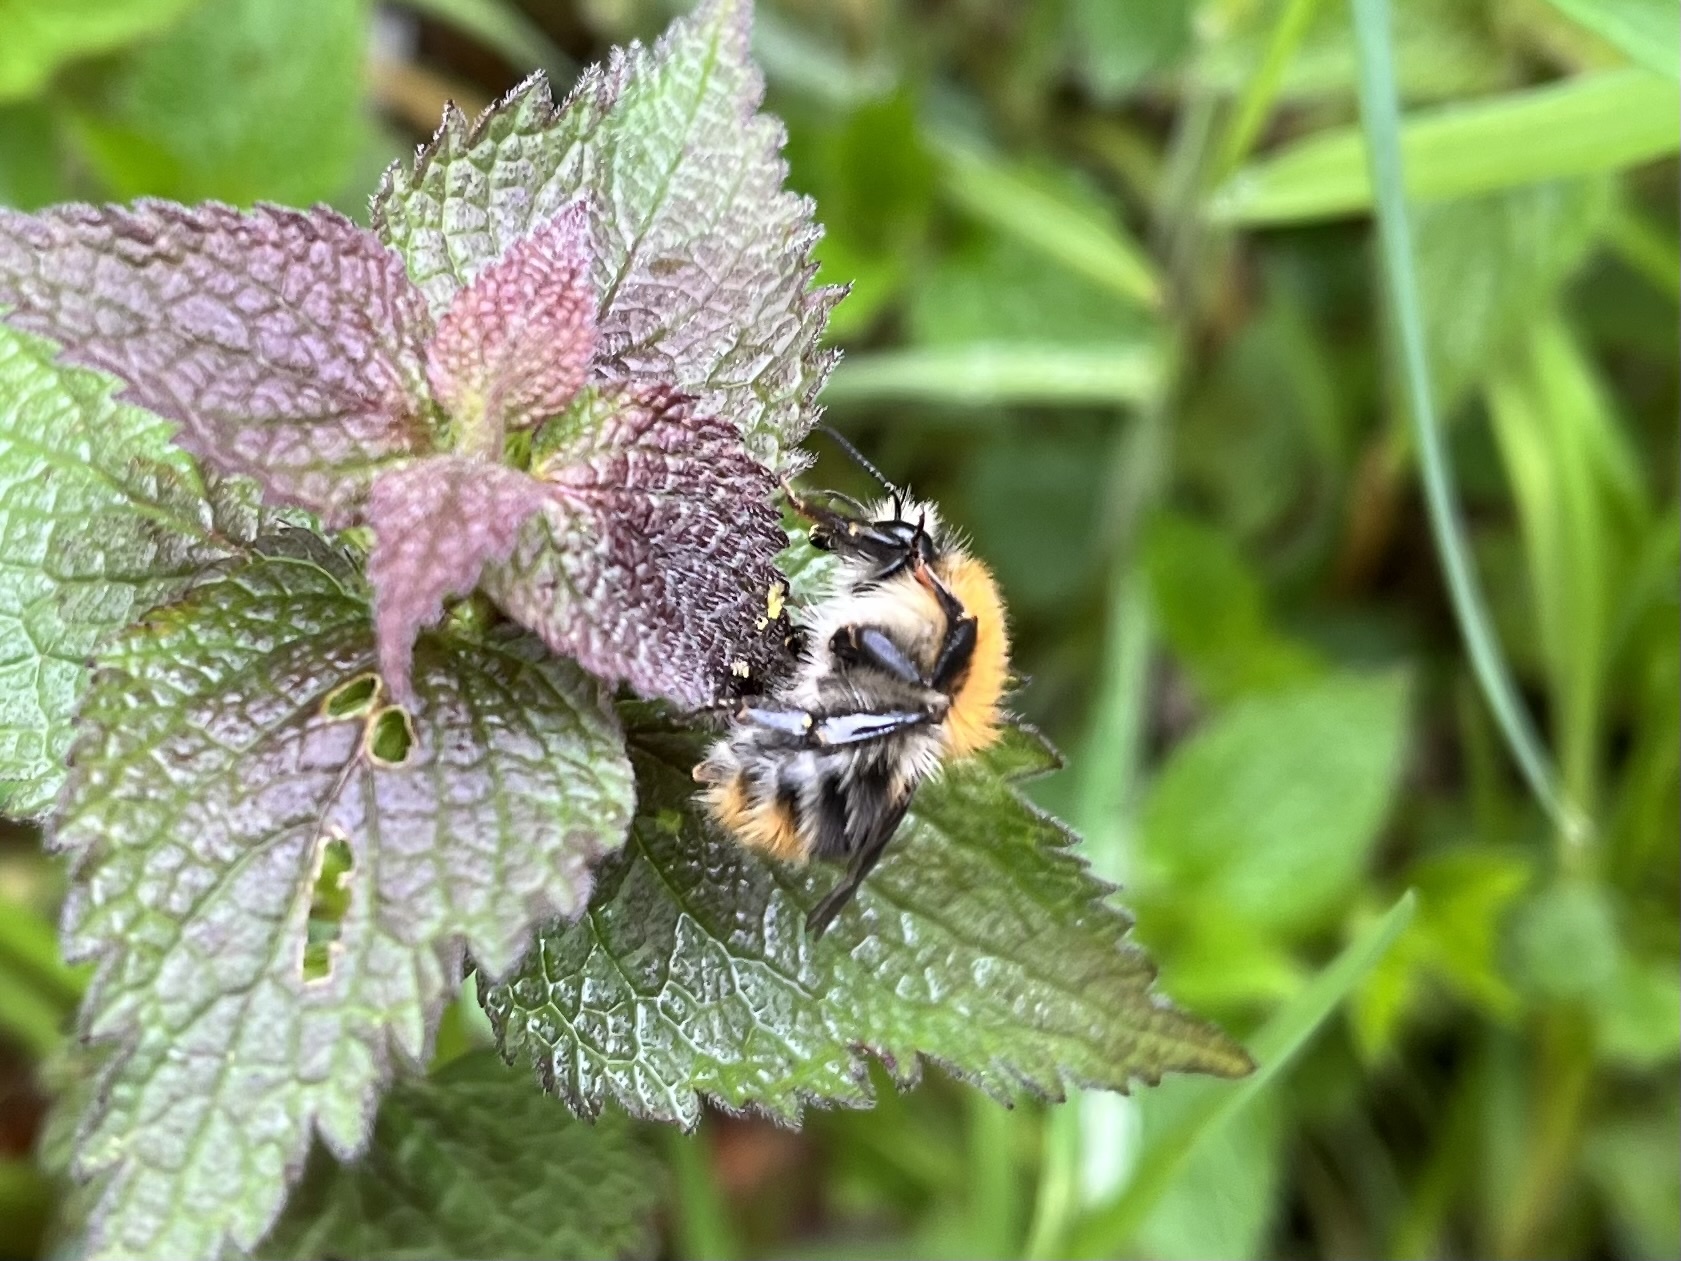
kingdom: Animalia
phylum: Arthropoda
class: Insecta
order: Hymenoptera
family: Apidae
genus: Bombus
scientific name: Bombus pascuorum
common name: Common carder bee
